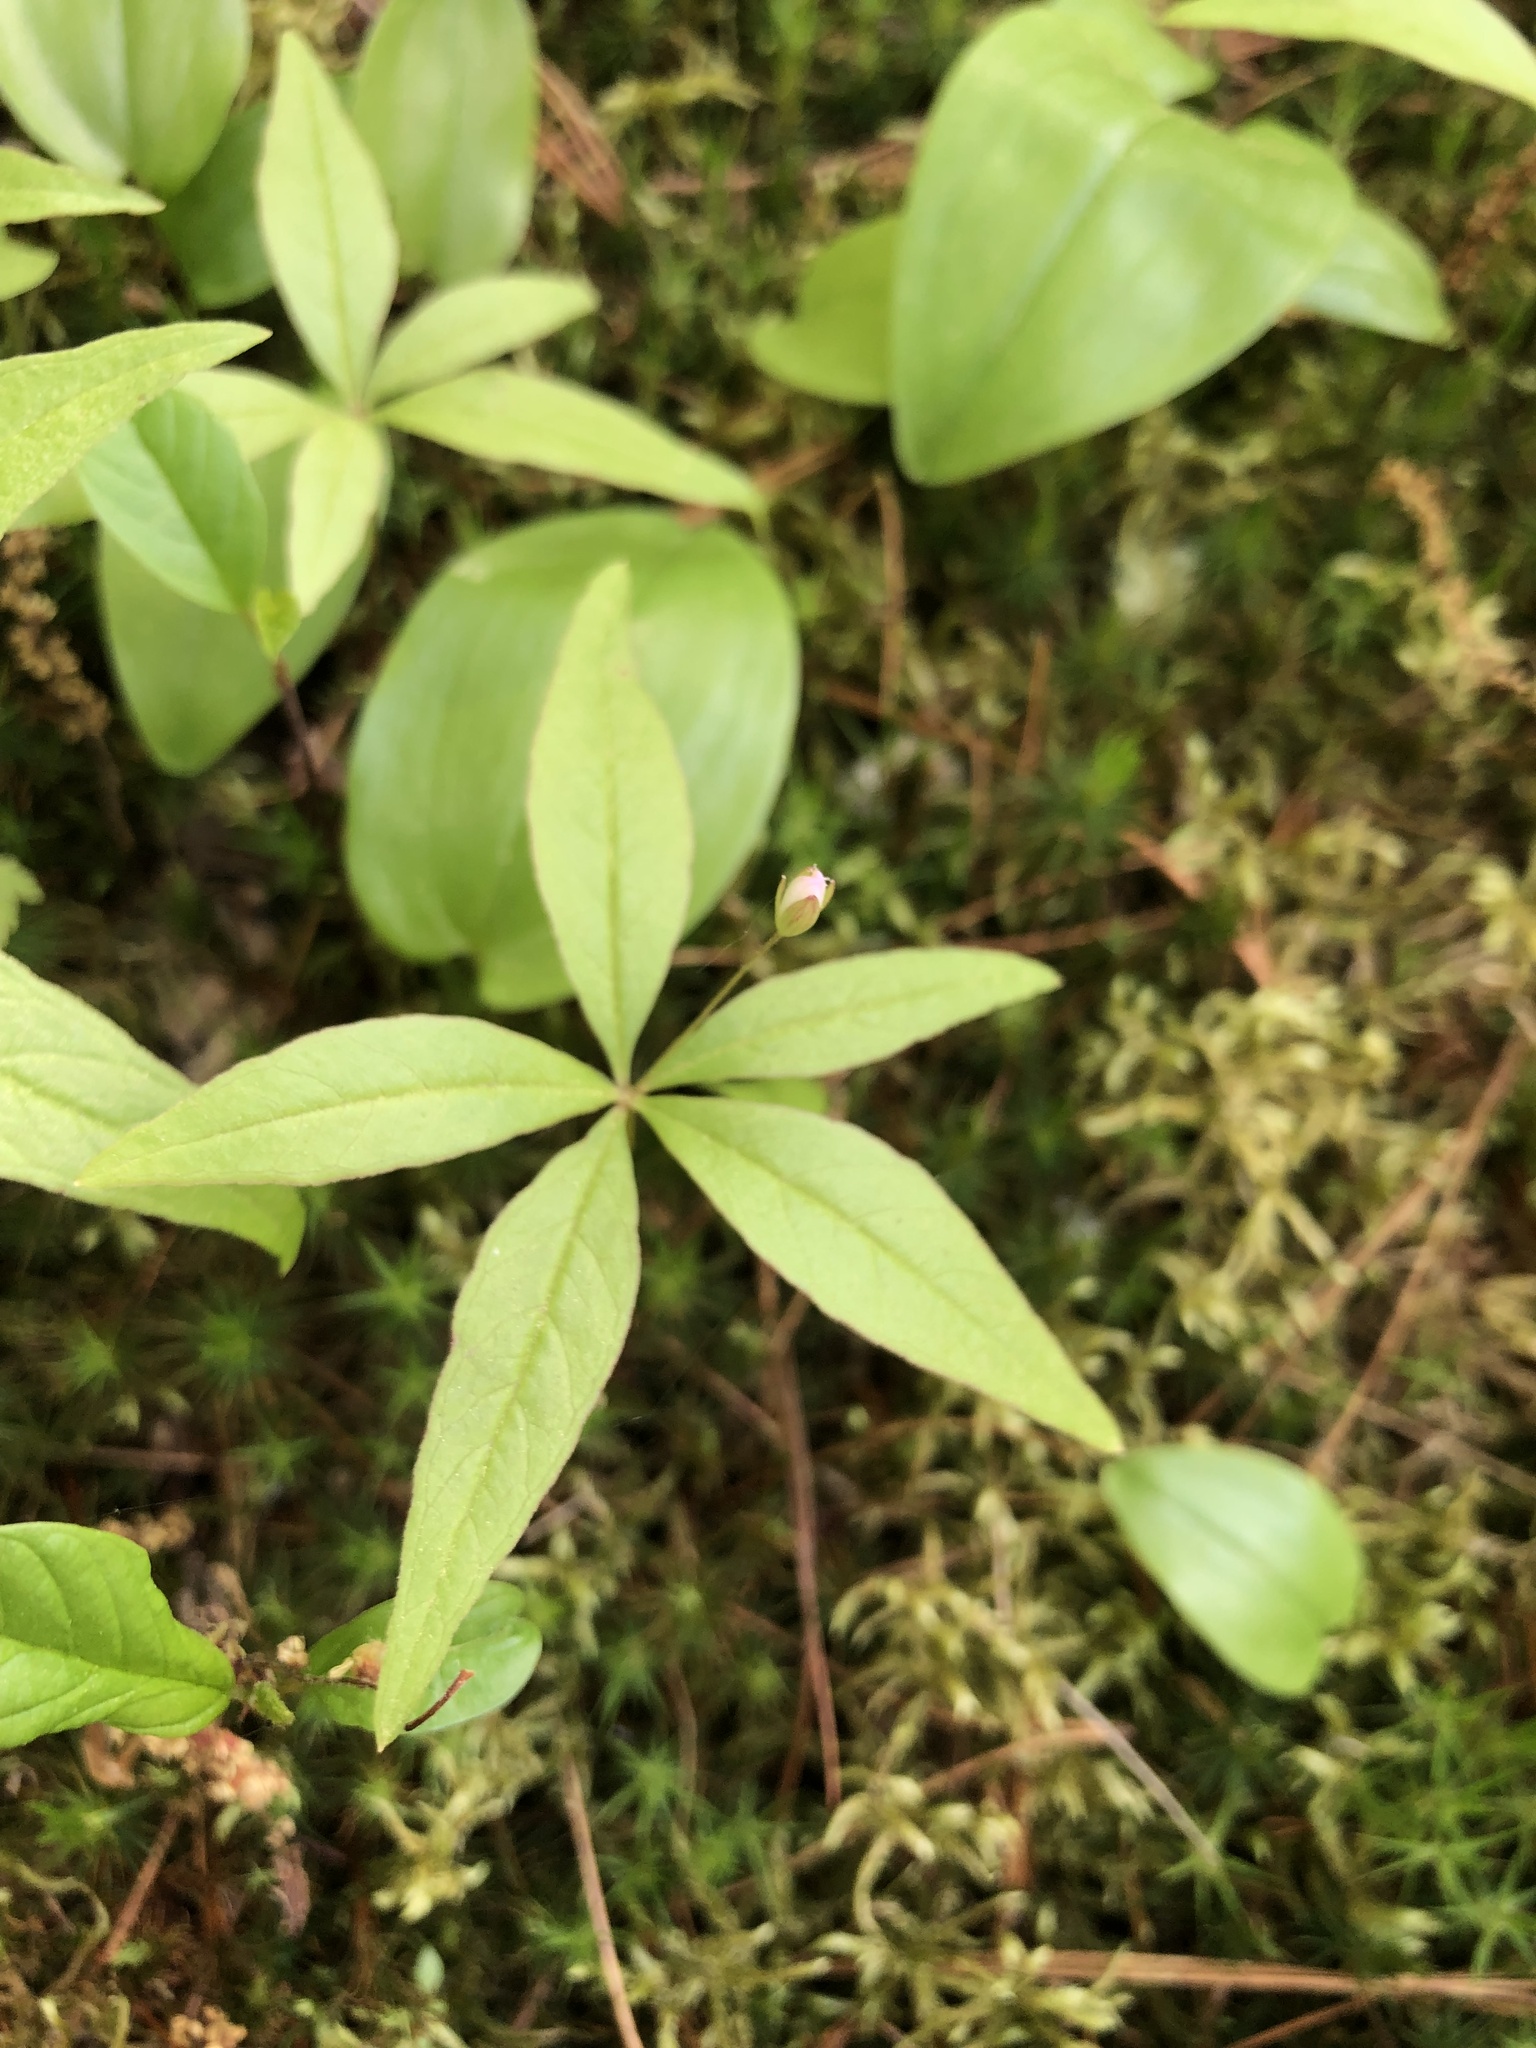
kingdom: Plantae
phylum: Tracheophyta
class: Magnoliopsida
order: Ericales
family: Primulaceae
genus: Lysimachia
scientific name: Lysimachia borealis
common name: American starflower
